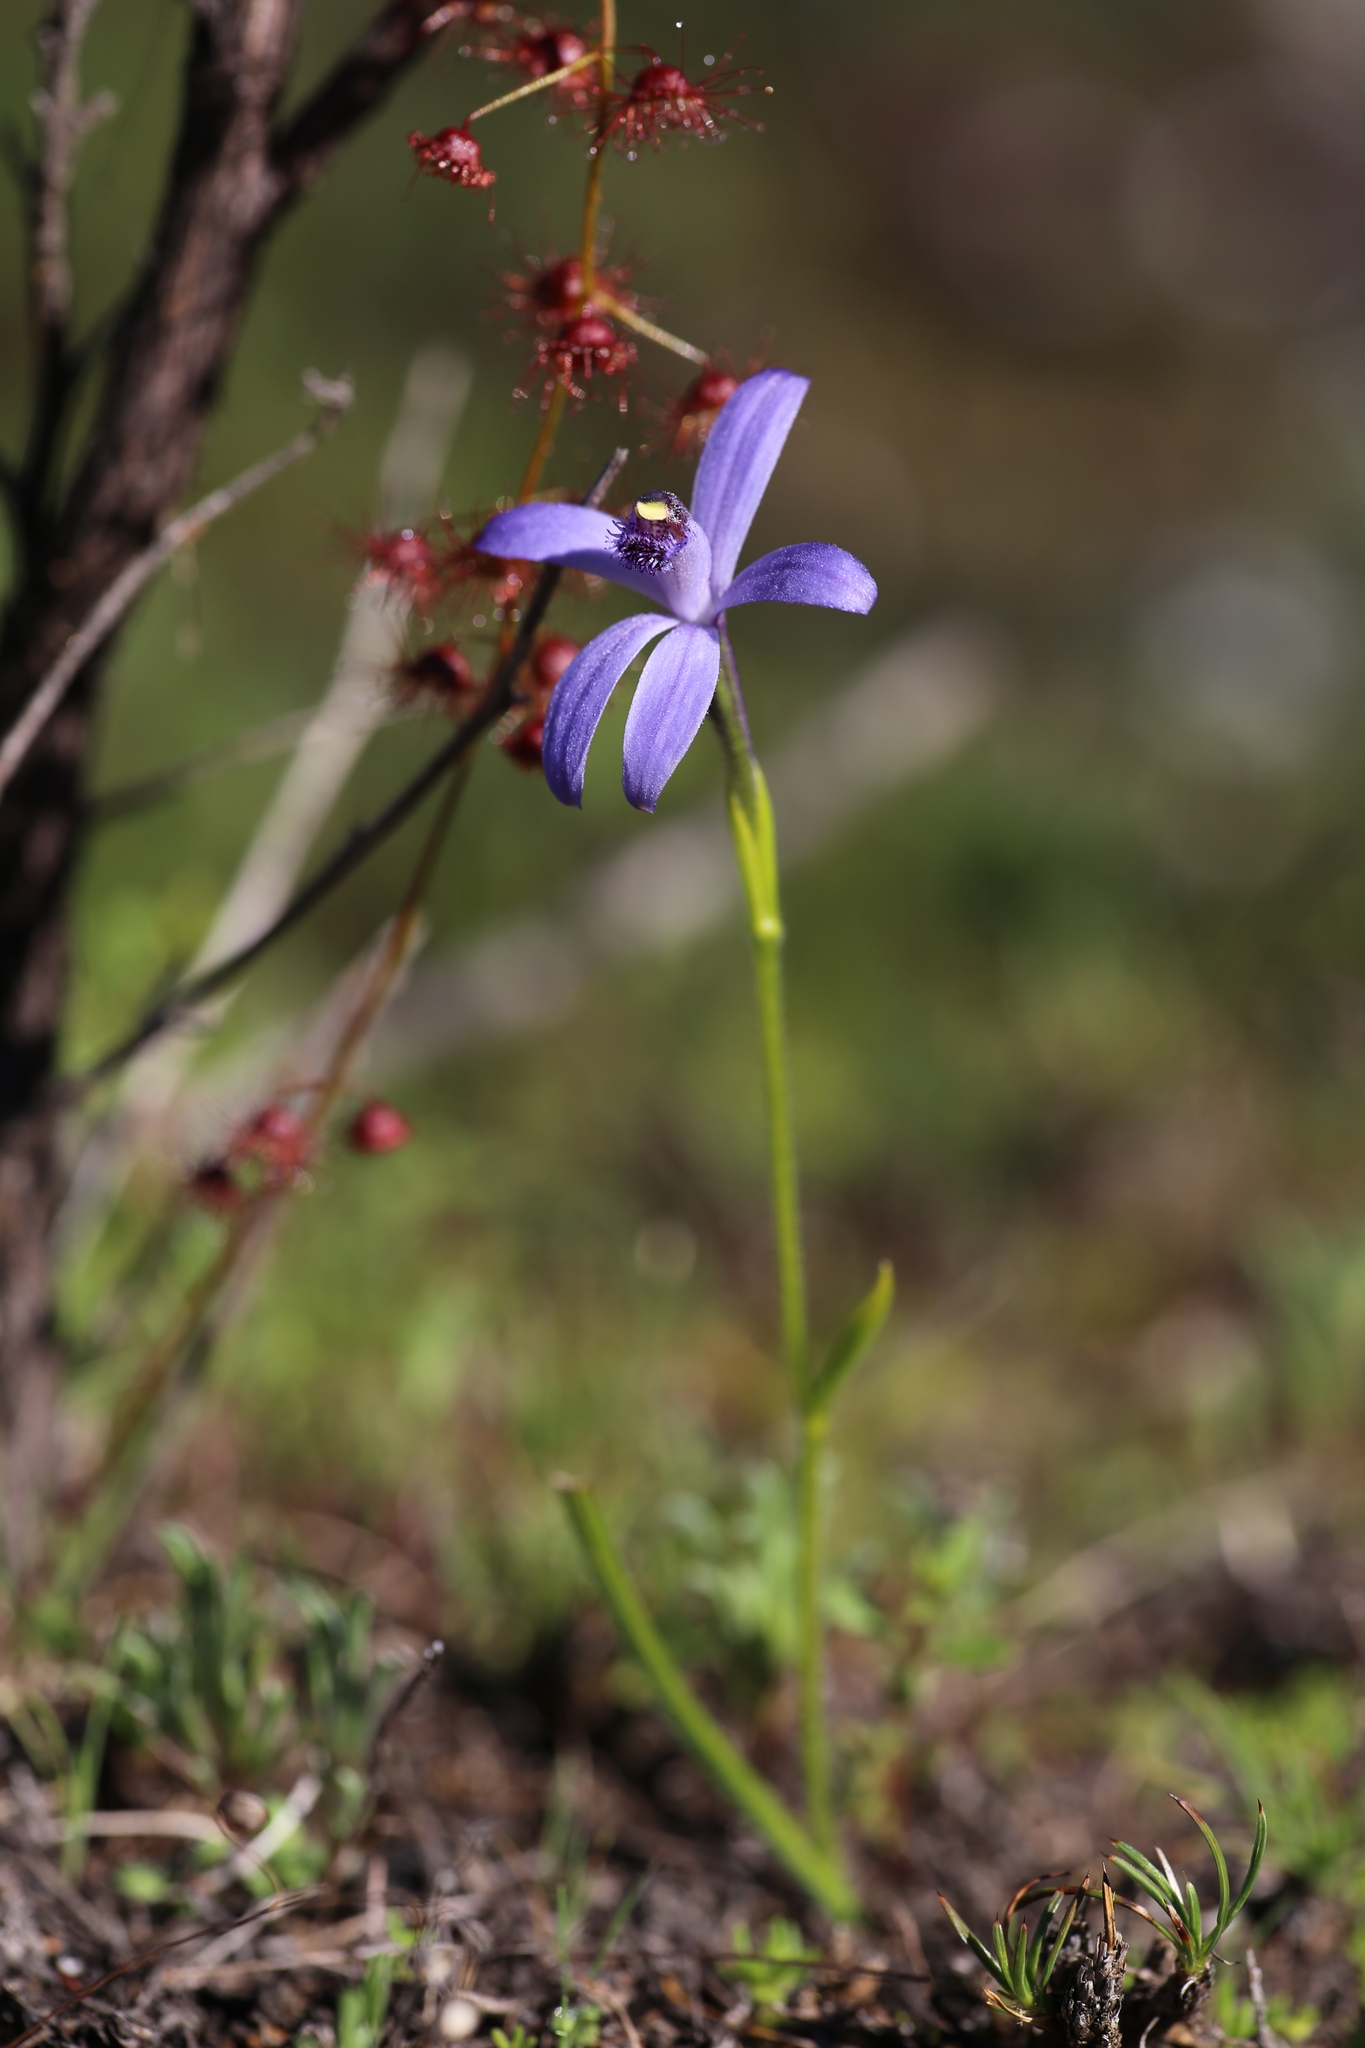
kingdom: Plantae
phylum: Tracheophyta
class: Liliopsida
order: Asparagales
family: Orchidaceae
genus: Pheladenia
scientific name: Pheladenia deformis
